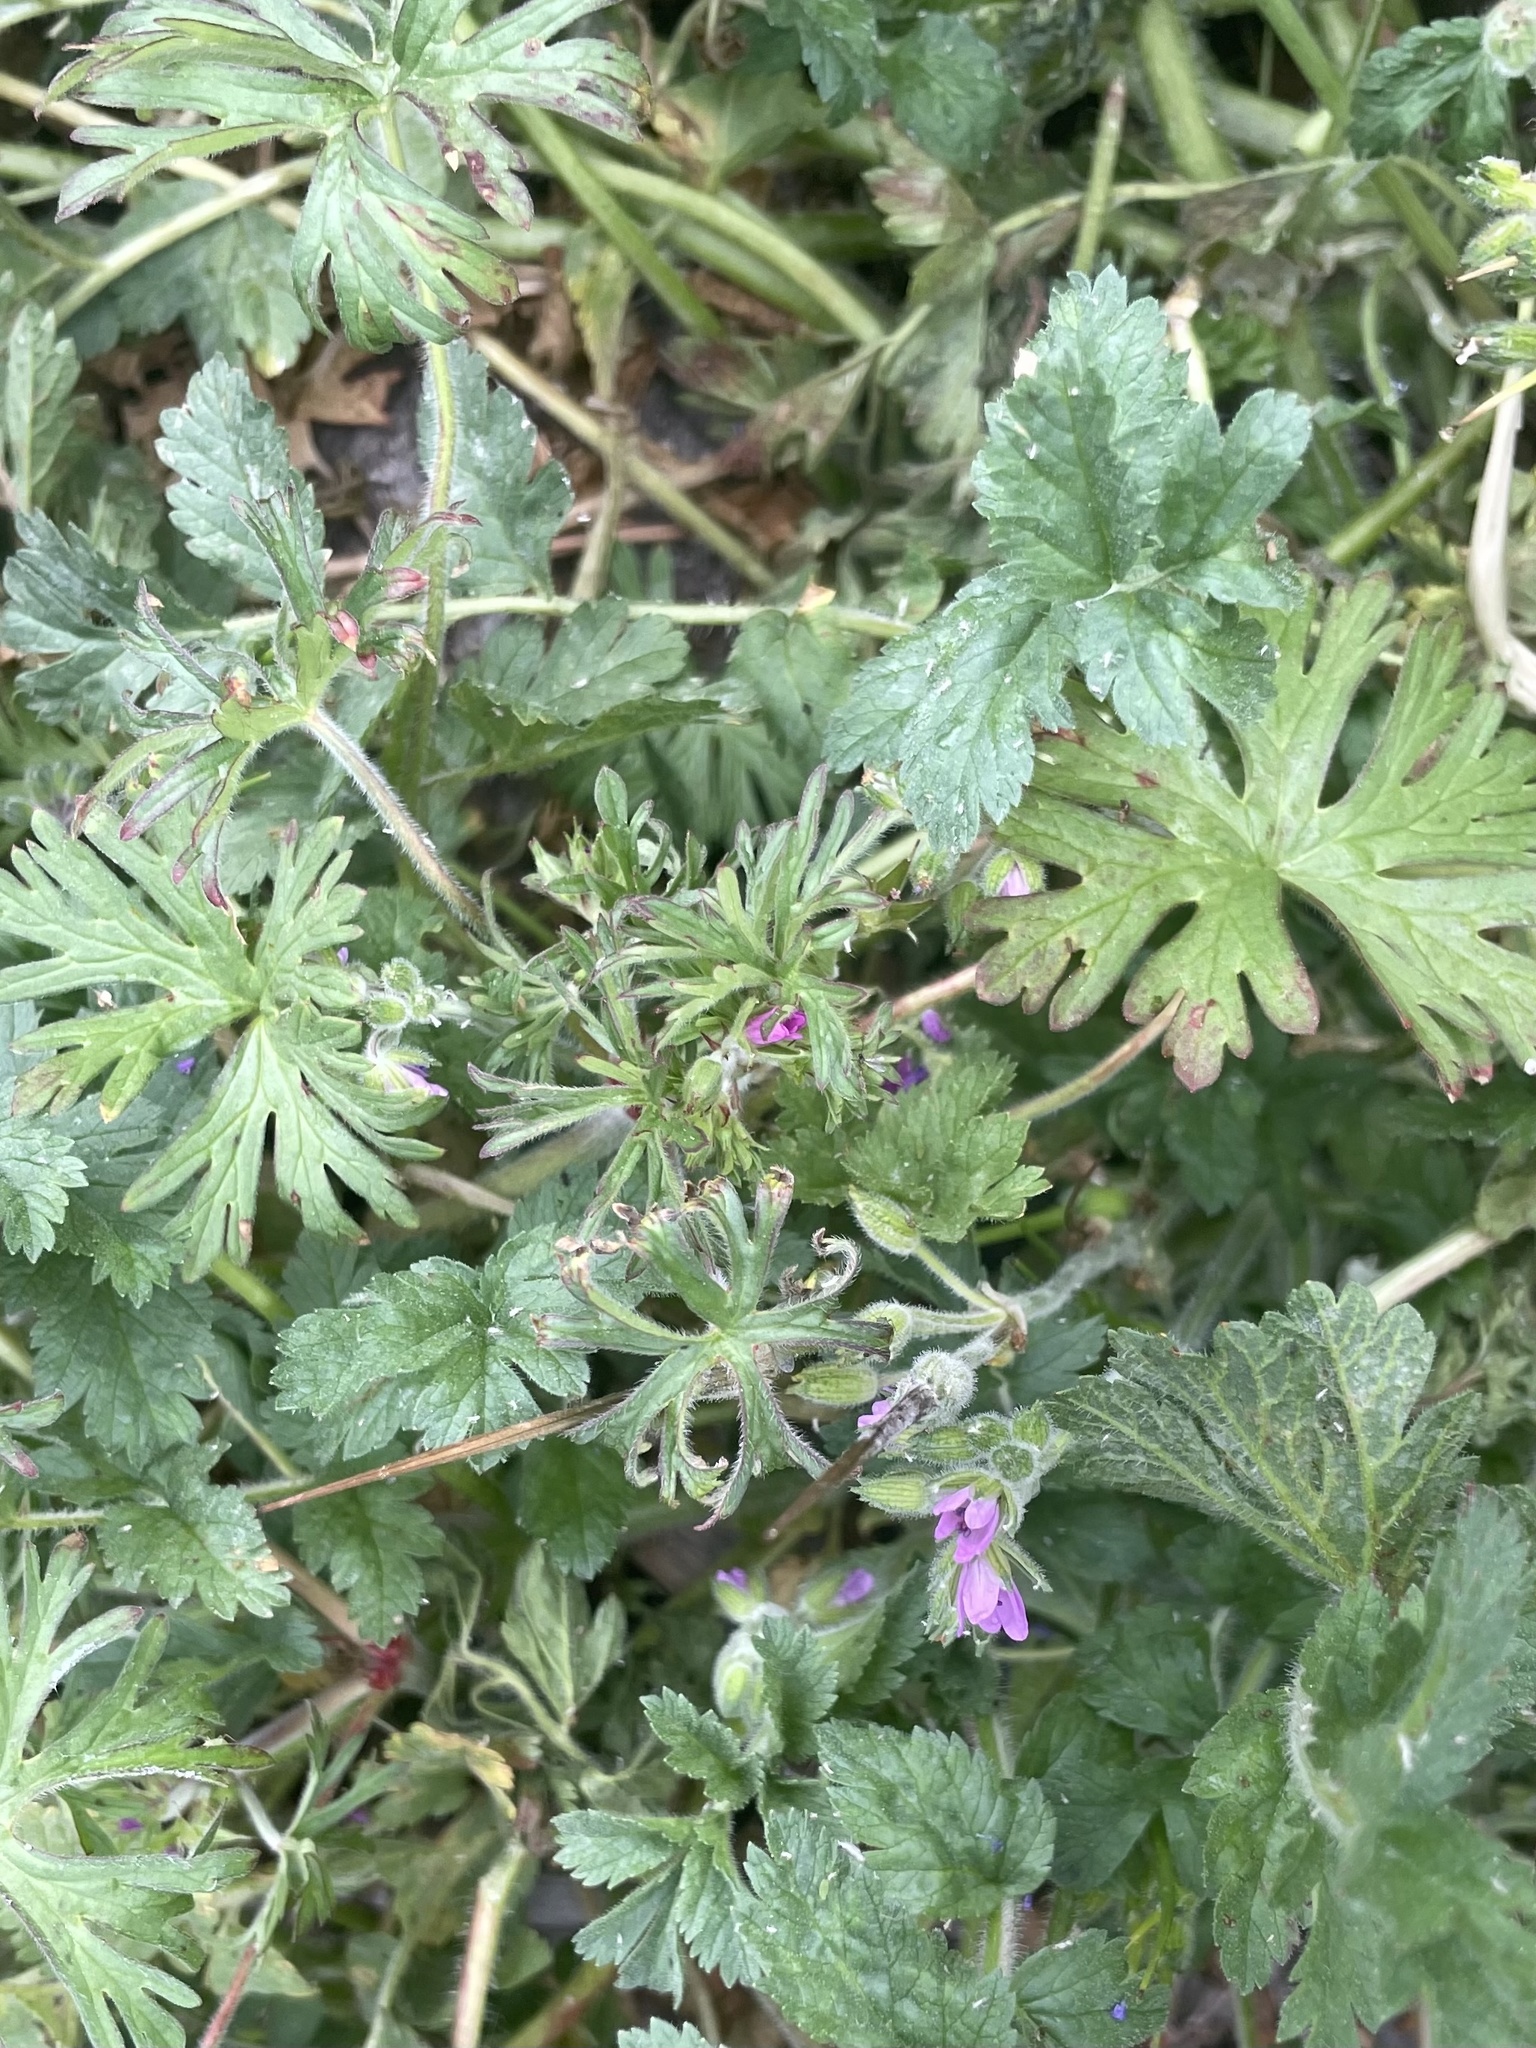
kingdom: Plantae
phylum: Tracheophyta
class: Magnoliopsida
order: Geraniales
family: Geraniaceae
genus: Geranium
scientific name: Geranium dissectum
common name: Cut-leaved crane's-bill
